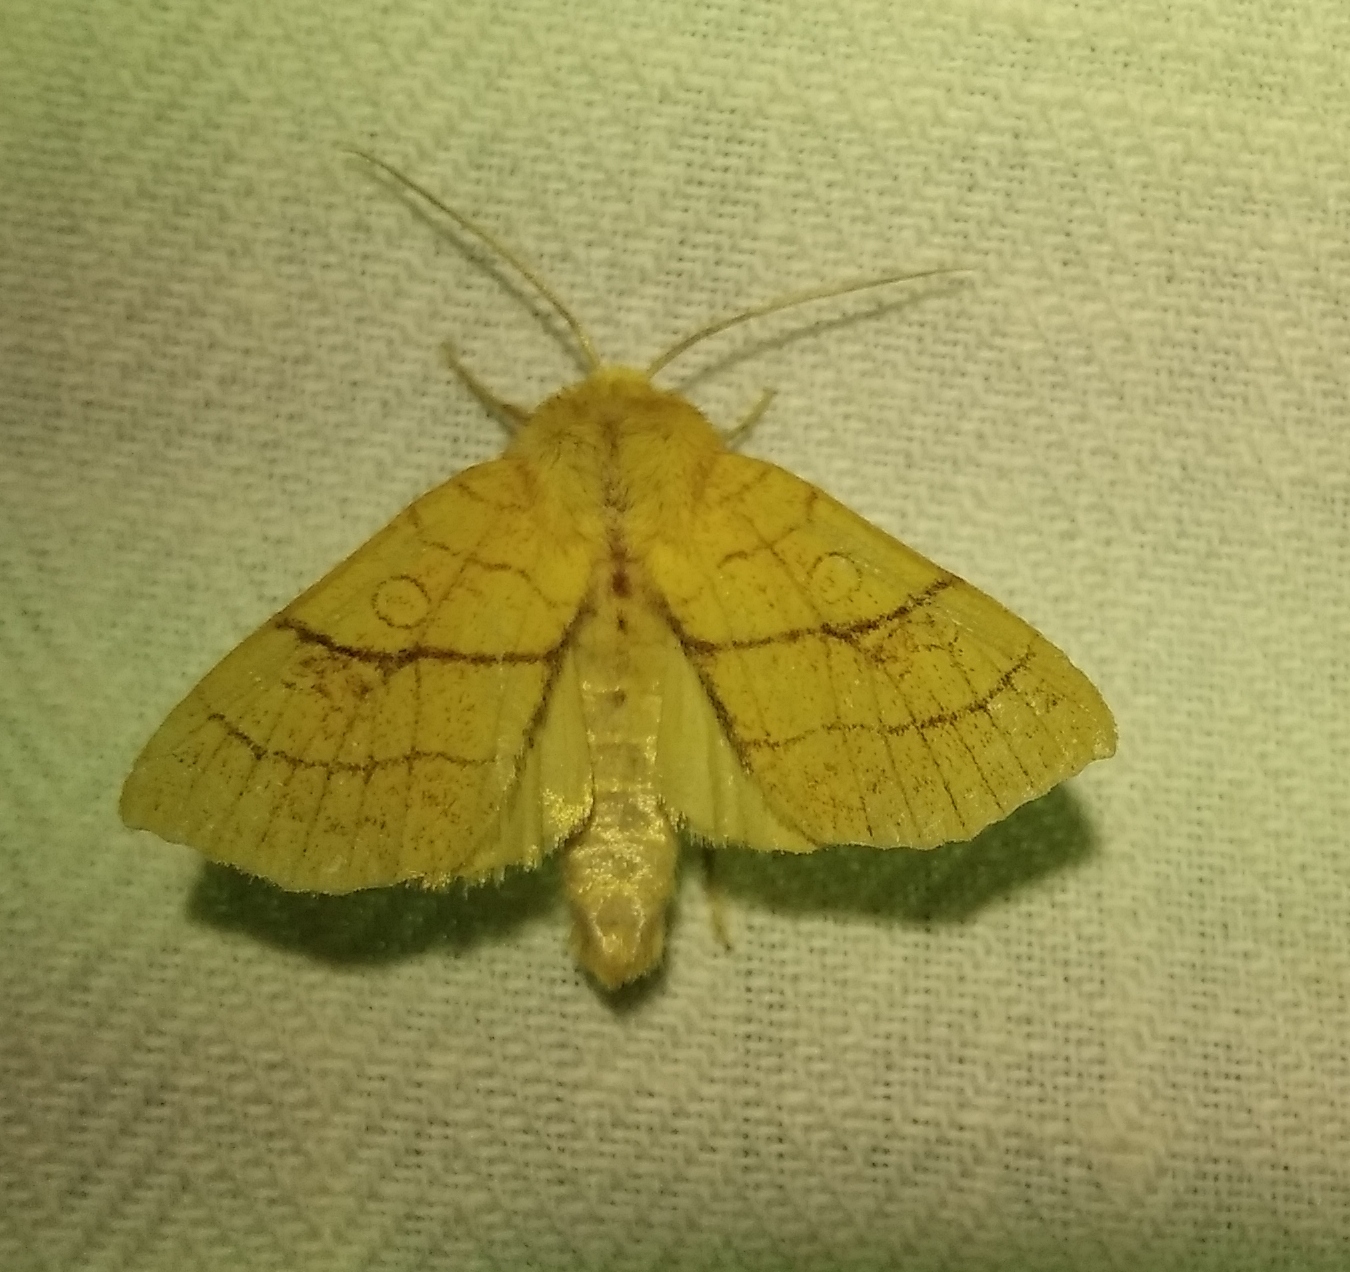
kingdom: Animalia
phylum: Arthropoda
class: Insecta
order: Lepidoptera
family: Noctuidae
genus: Tiliacea
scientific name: Tiliacea citrago
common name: Orange sallow
